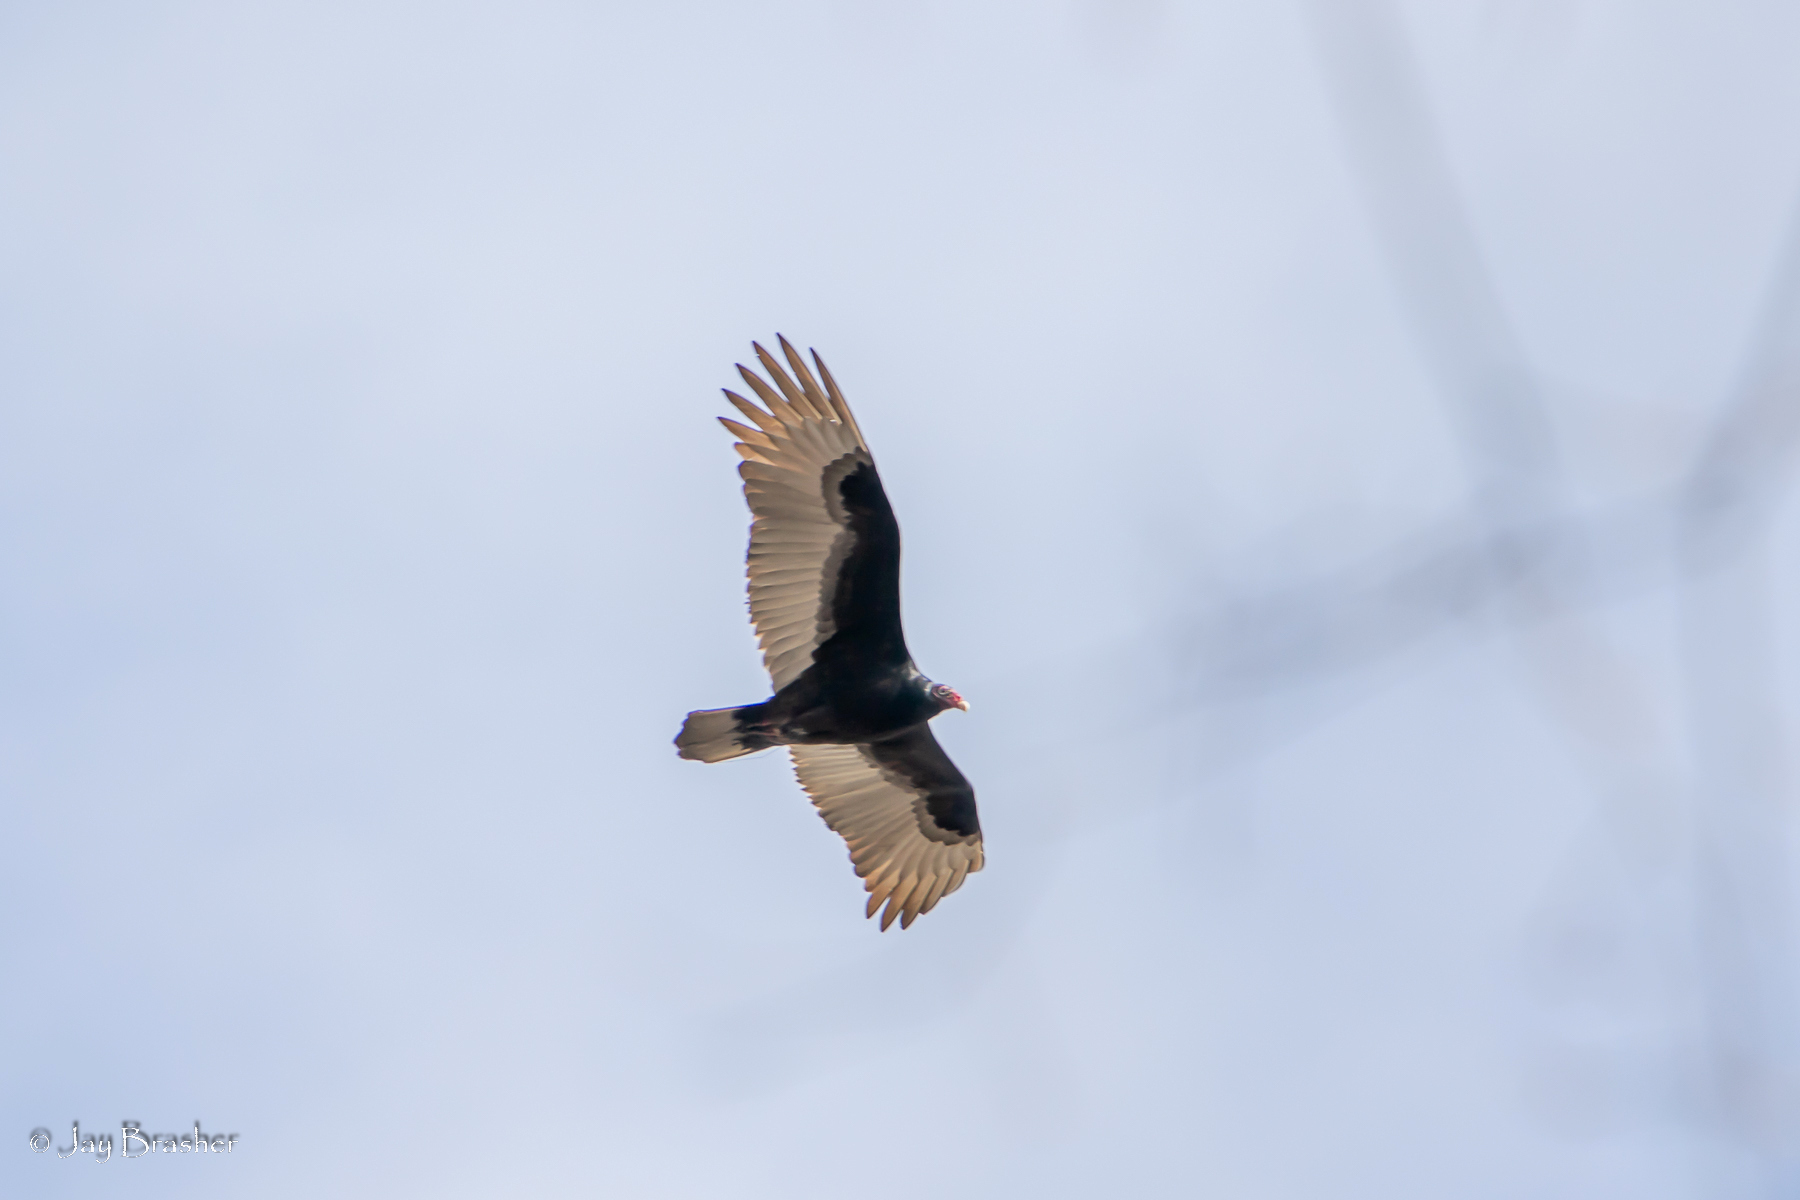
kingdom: Animalia
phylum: Chordata
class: Aves
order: Accipitriformes
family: Cathartidae
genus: Cathartes
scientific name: Cathartes aura
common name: Turkey vulture
